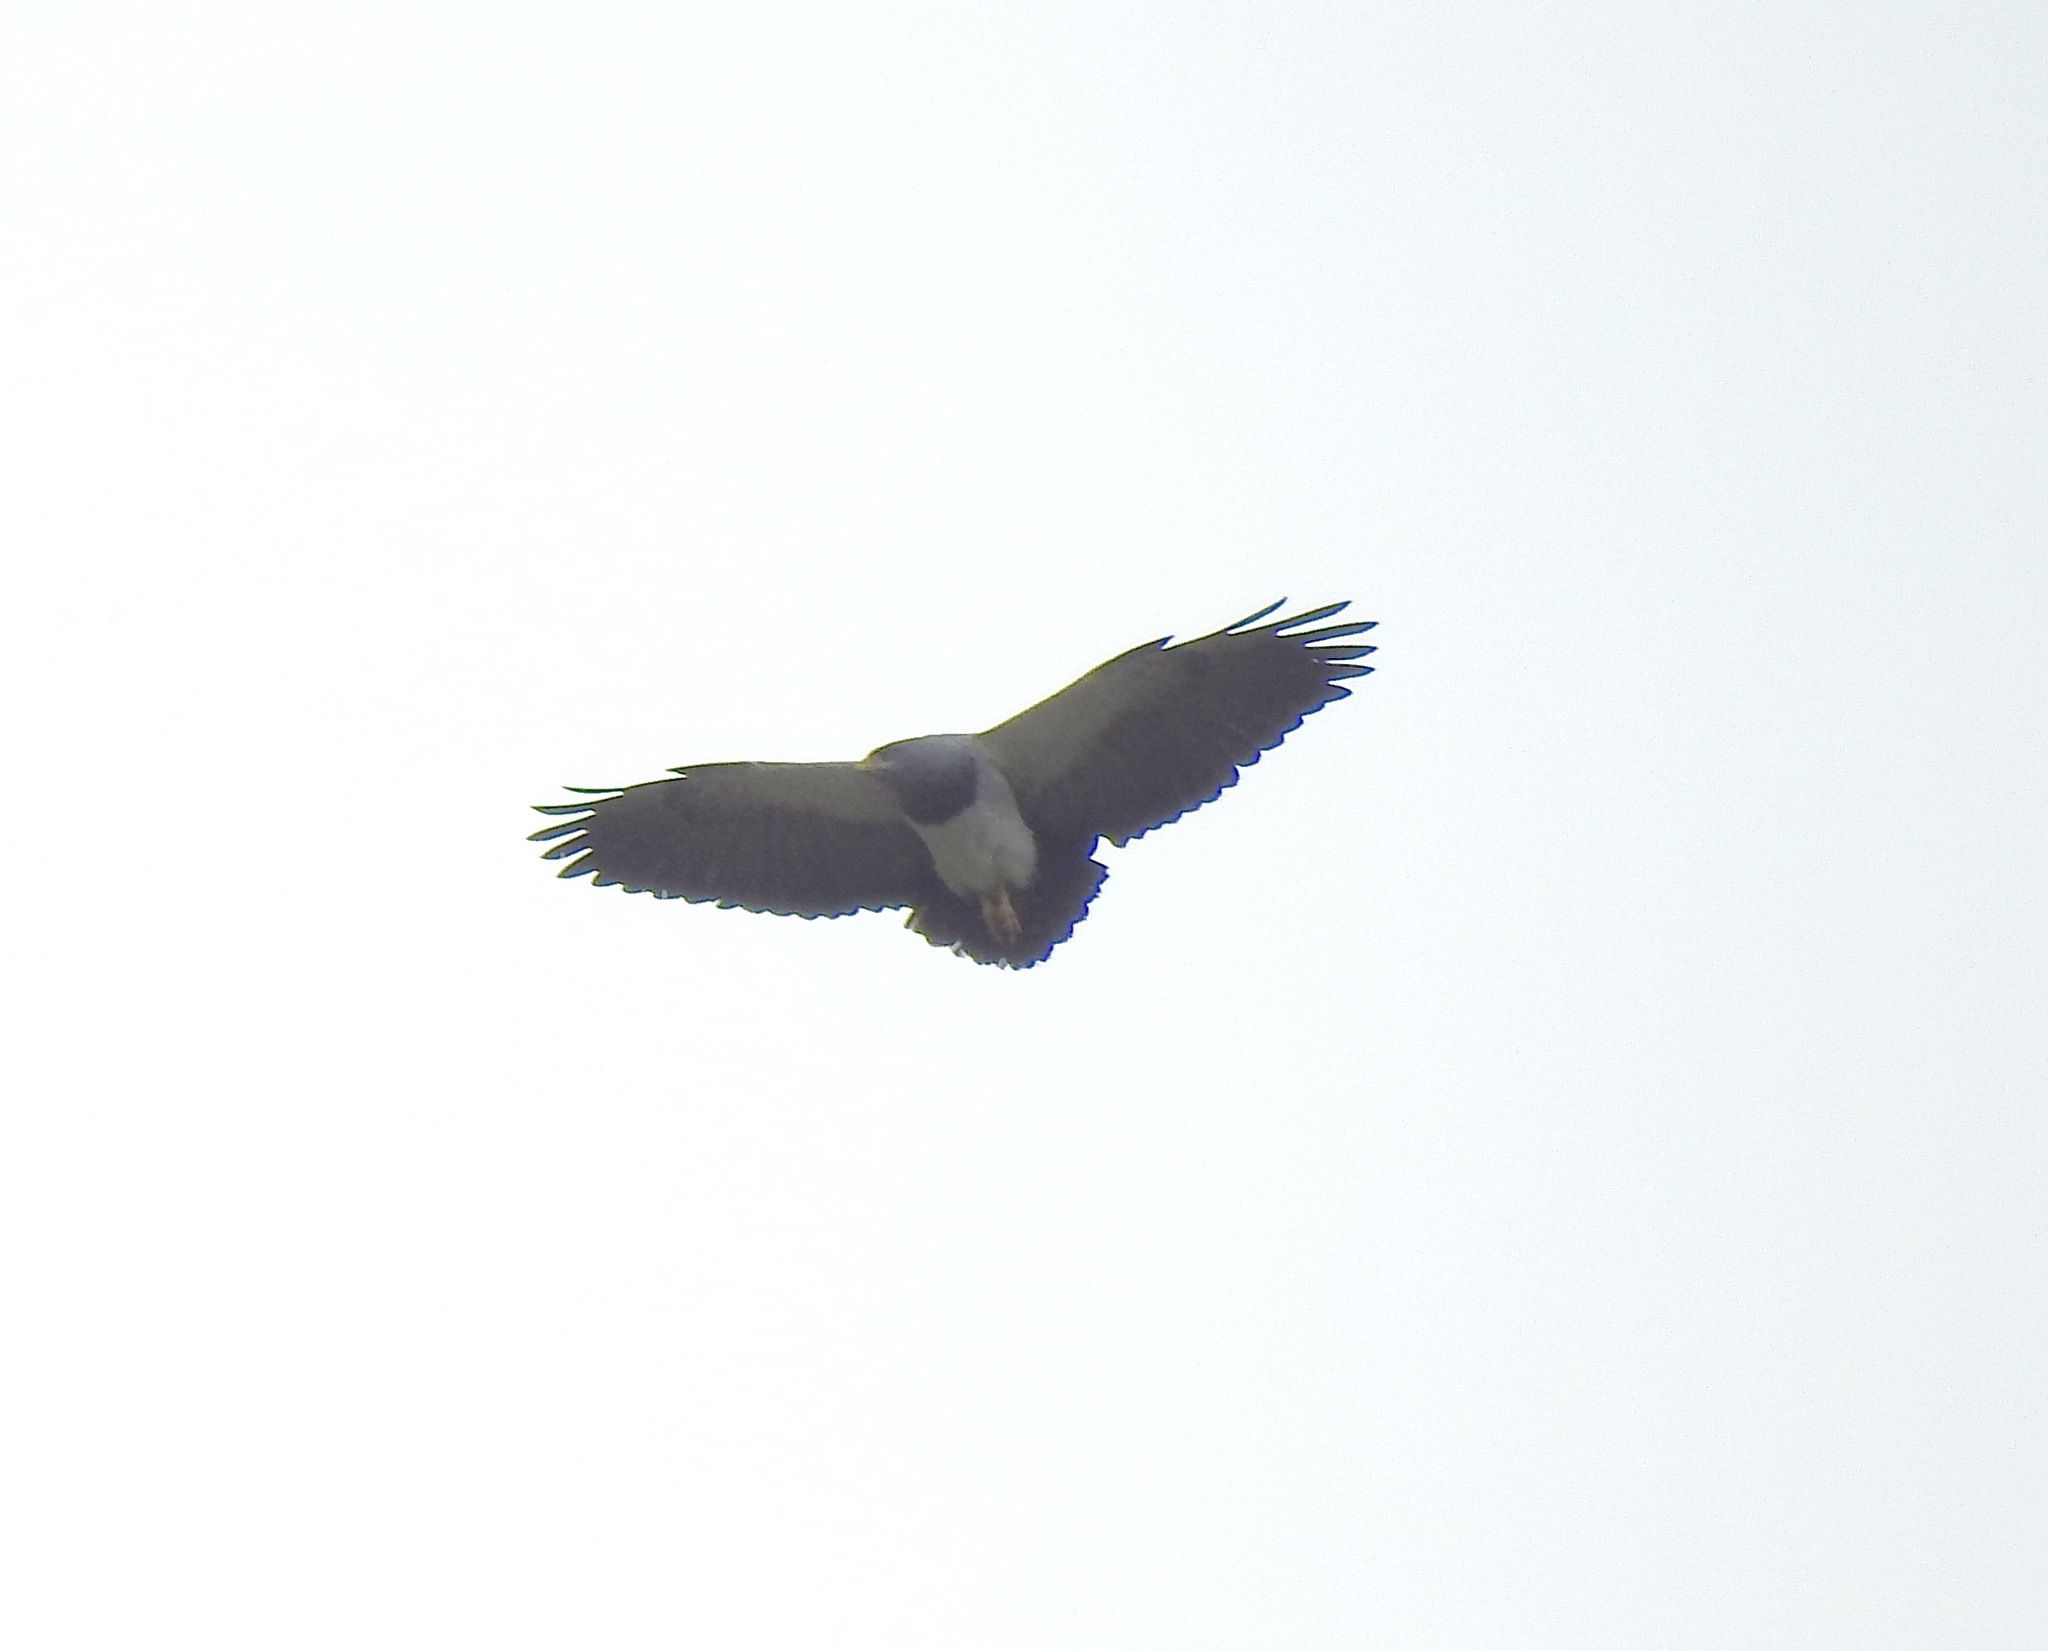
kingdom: Animalia
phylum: Chordata
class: Aves
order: Accipitriformes
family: Accipitridae
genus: Geranoaetus
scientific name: Geranoaetus melanoleucus
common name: Black-chested buzzard-eagle
